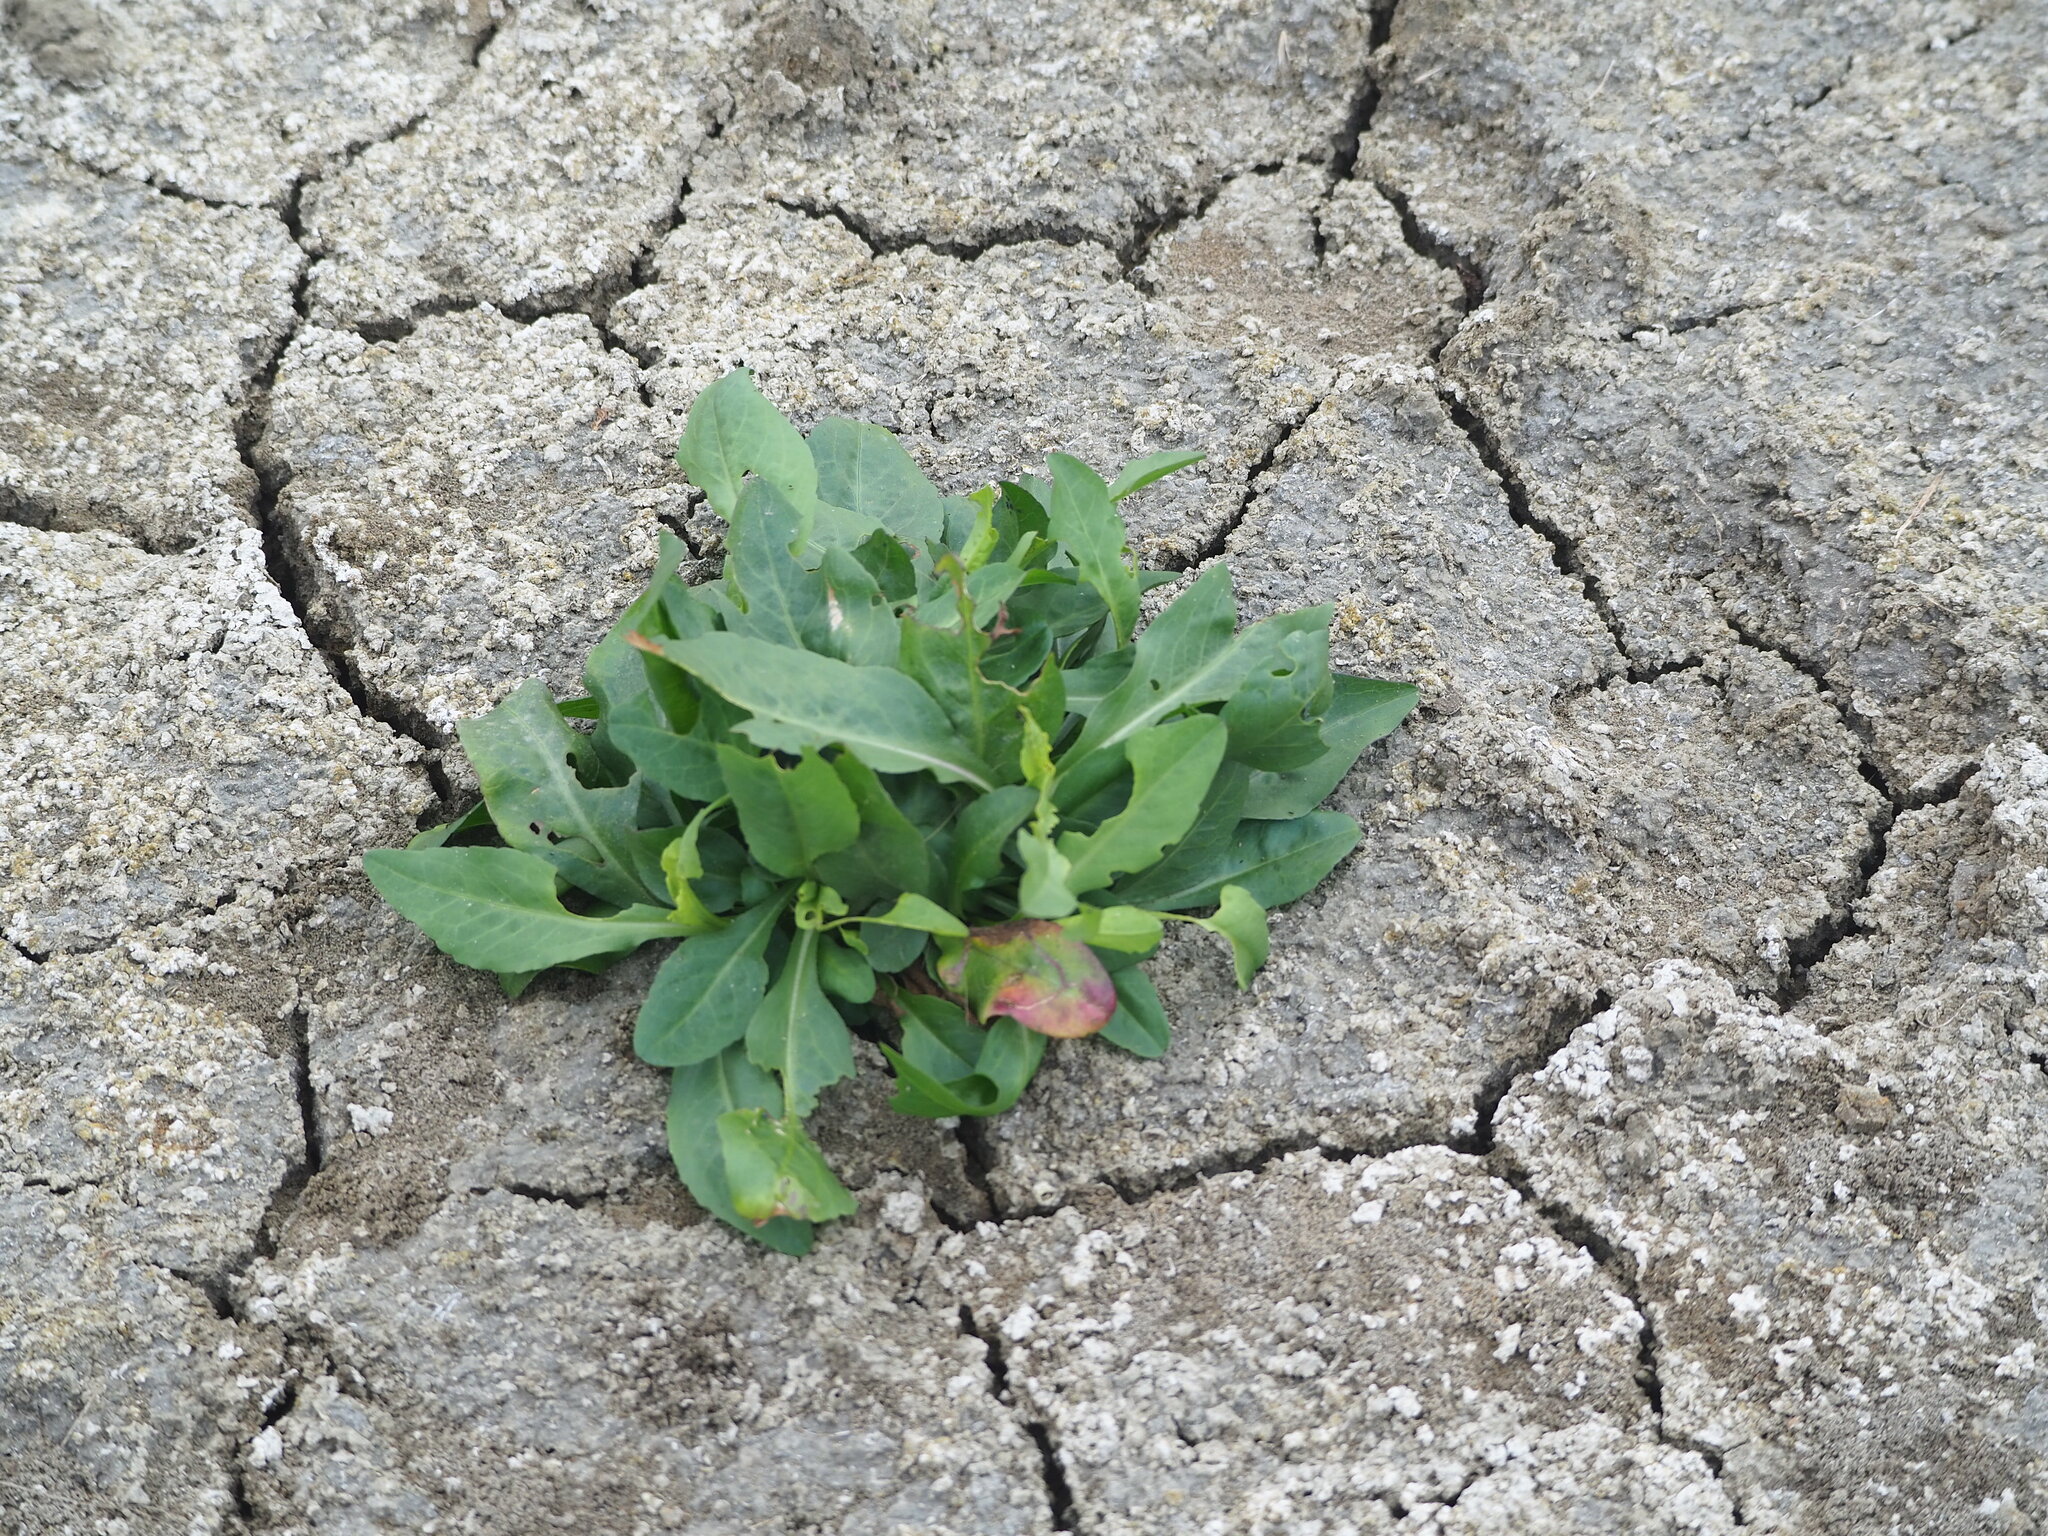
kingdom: Plantae
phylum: Tracheophyta
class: Magnoliopsida
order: Asterales
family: Asteraceae
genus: Symphyotrichum
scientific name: Symphyotrichum subulatum
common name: Annual saltmarsh aster
